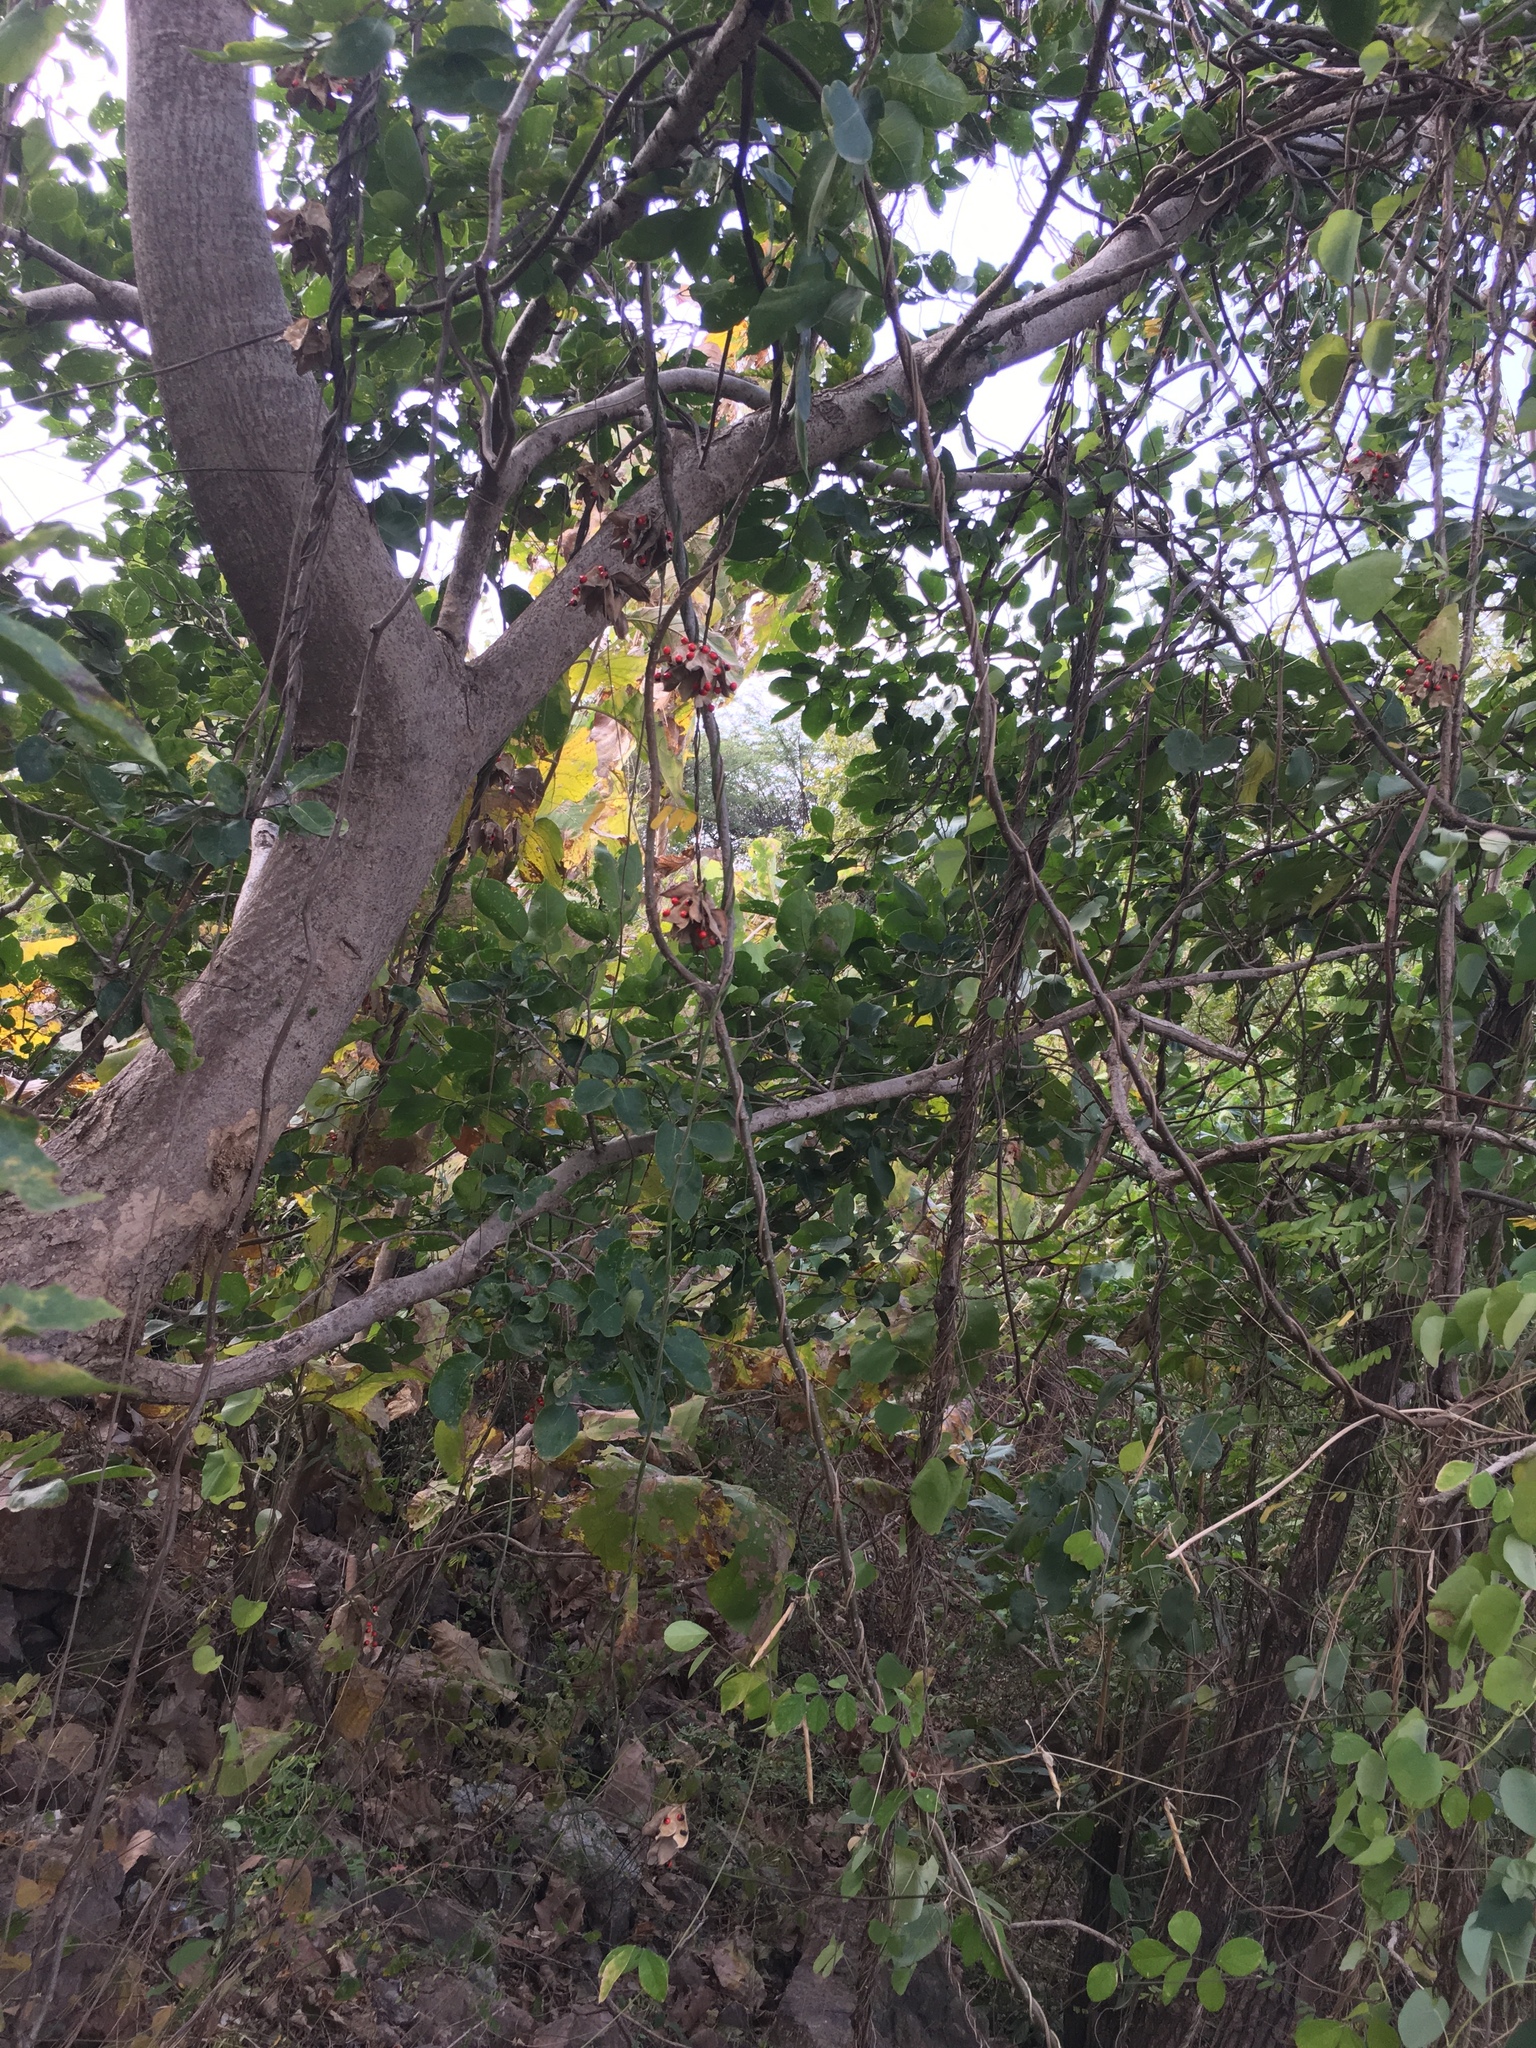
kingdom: Plantae
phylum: Tracheophyta
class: Magnoliopsida
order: Fabales
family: Fabaceae
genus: Abrus
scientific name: Abrus precatorius
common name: Rosarypea
